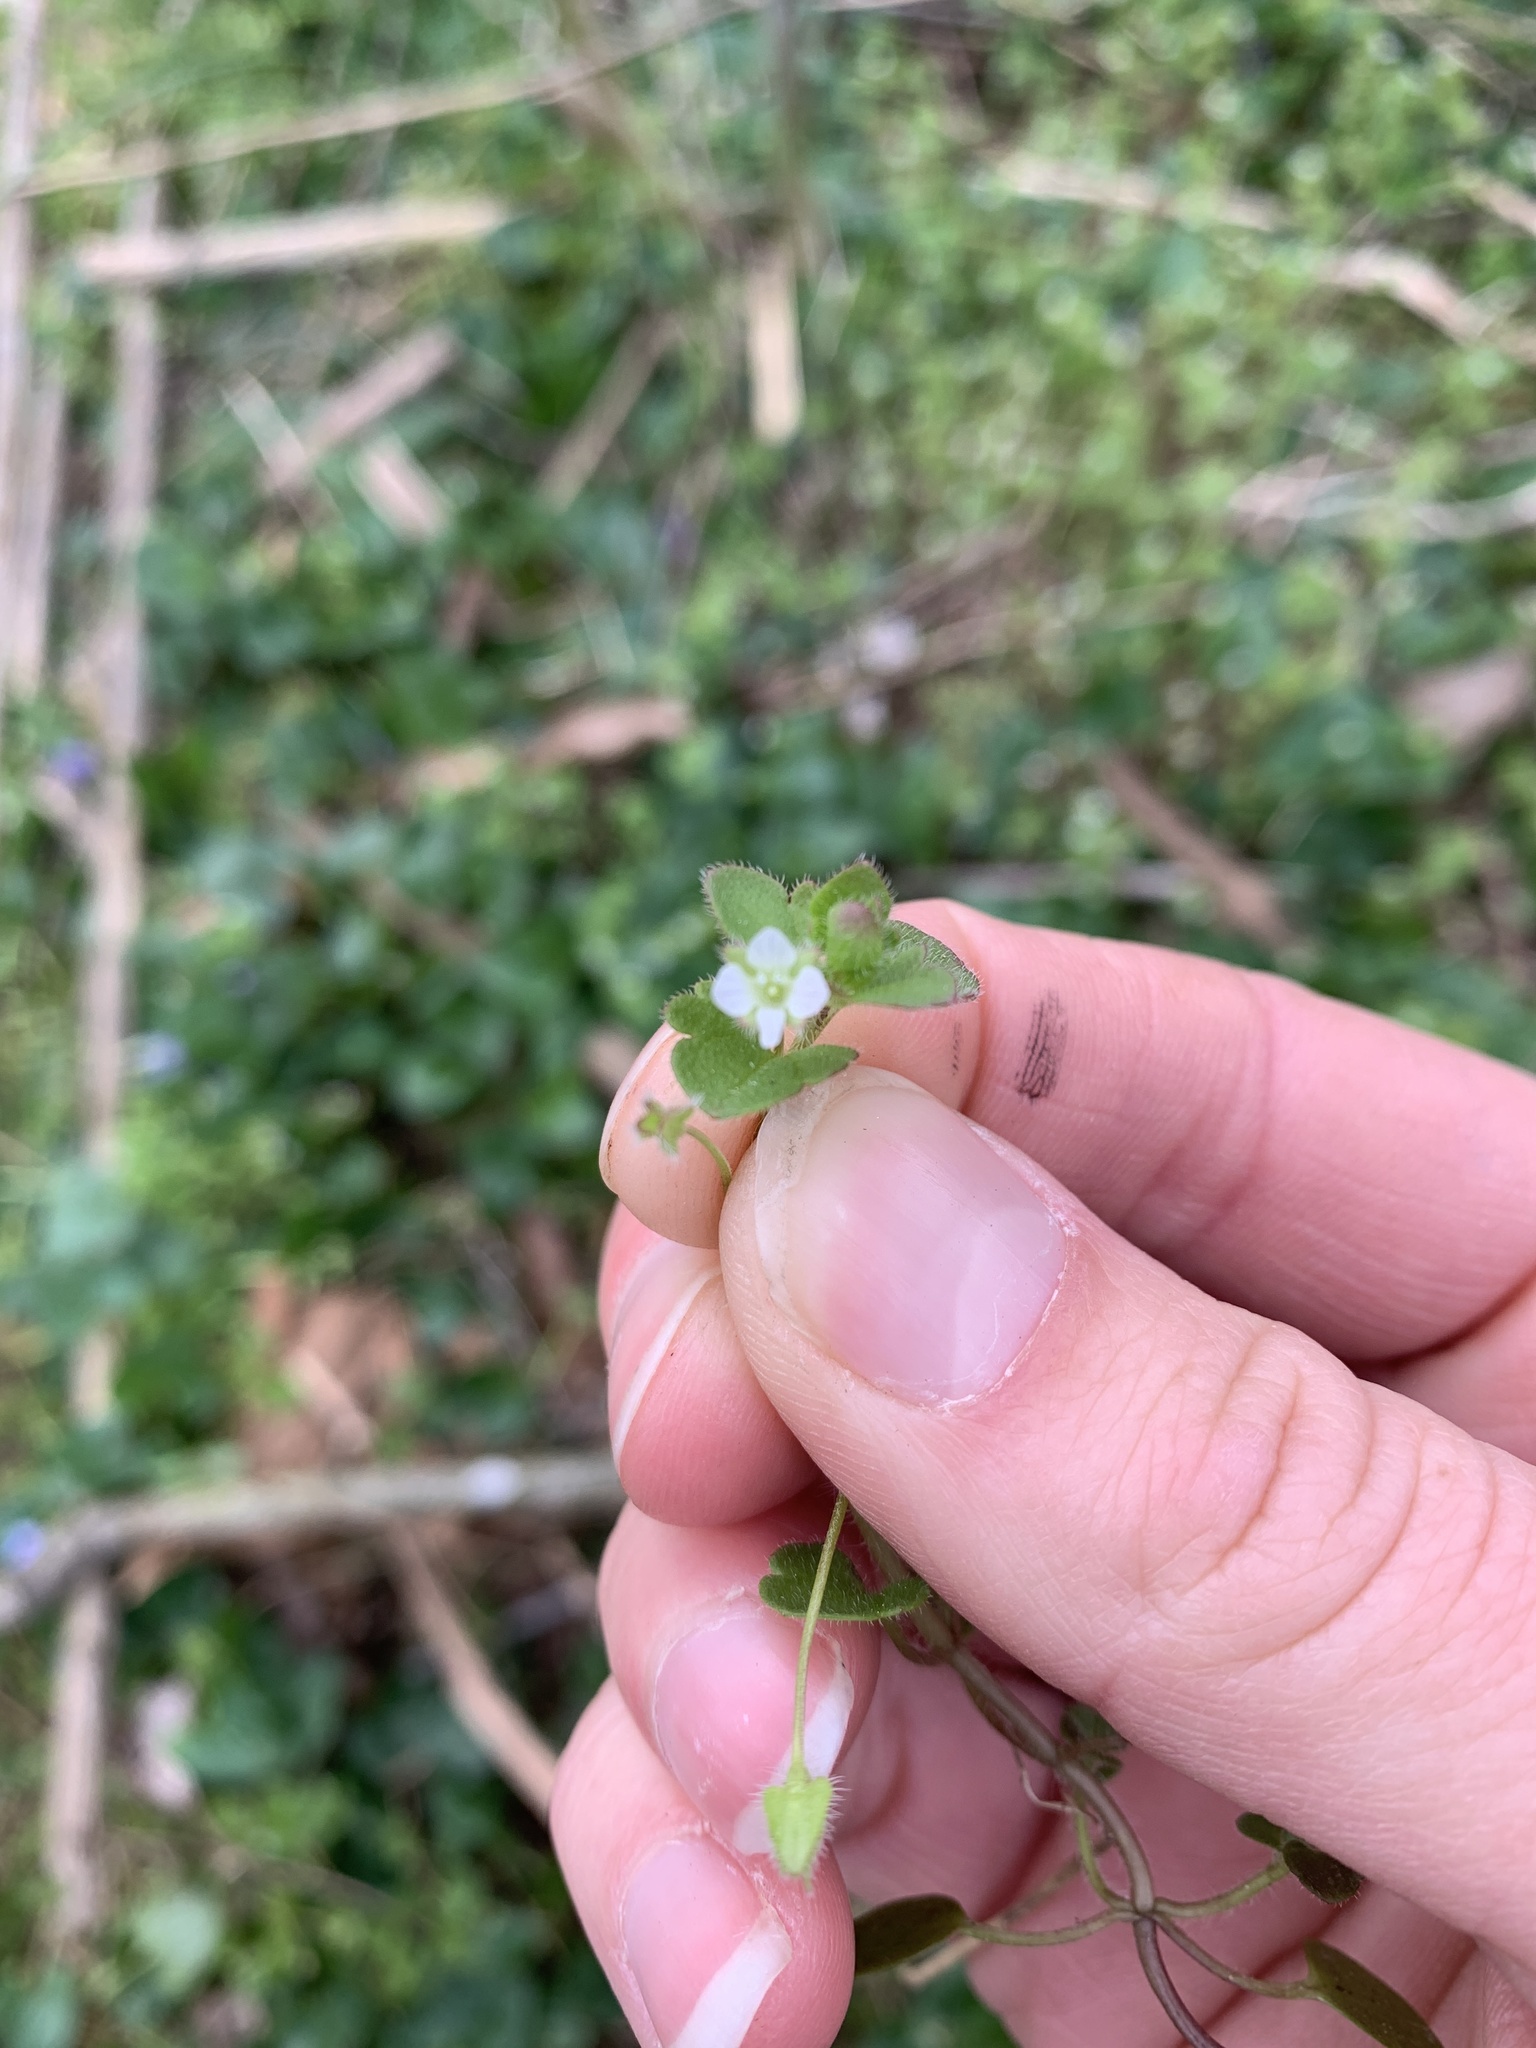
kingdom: Plantae
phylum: Tracheophyta
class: Magnoliopsida
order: Lamiales
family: Plantaginaceae
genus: Veronica
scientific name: Veronica hederifolia
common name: Ivy-leaved speedwell
